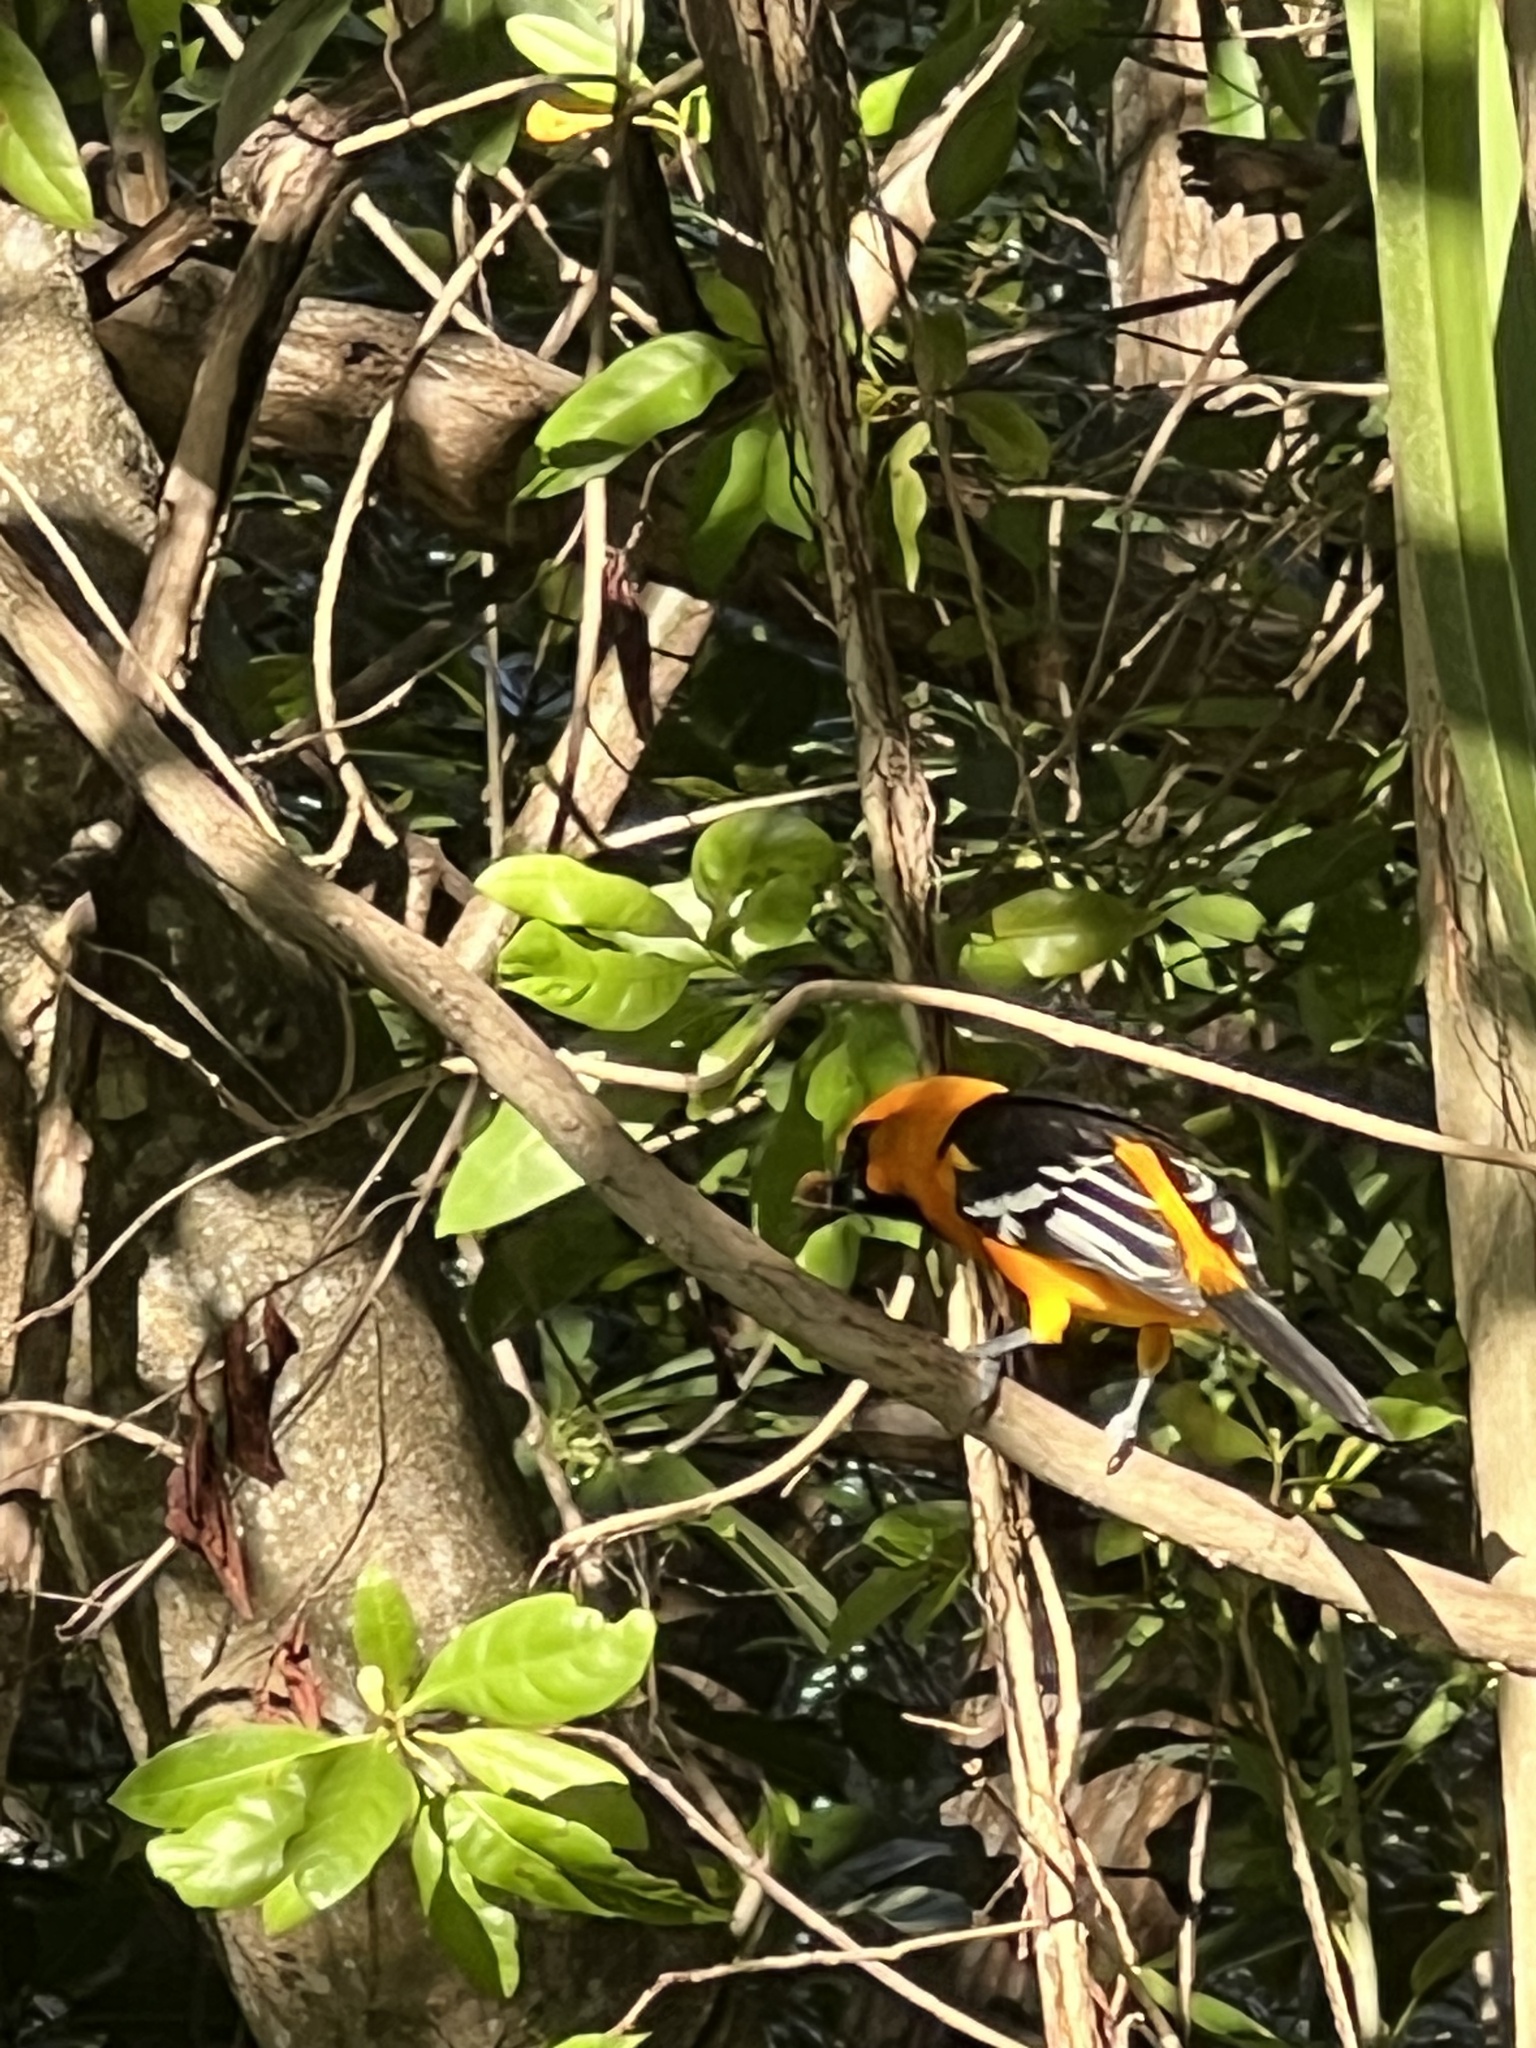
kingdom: Animalia
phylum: Chordata
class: Aves
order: Passeriformes
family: Icteridae
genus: Icterus
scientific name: Icterus gularis
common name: Altamira oriole
